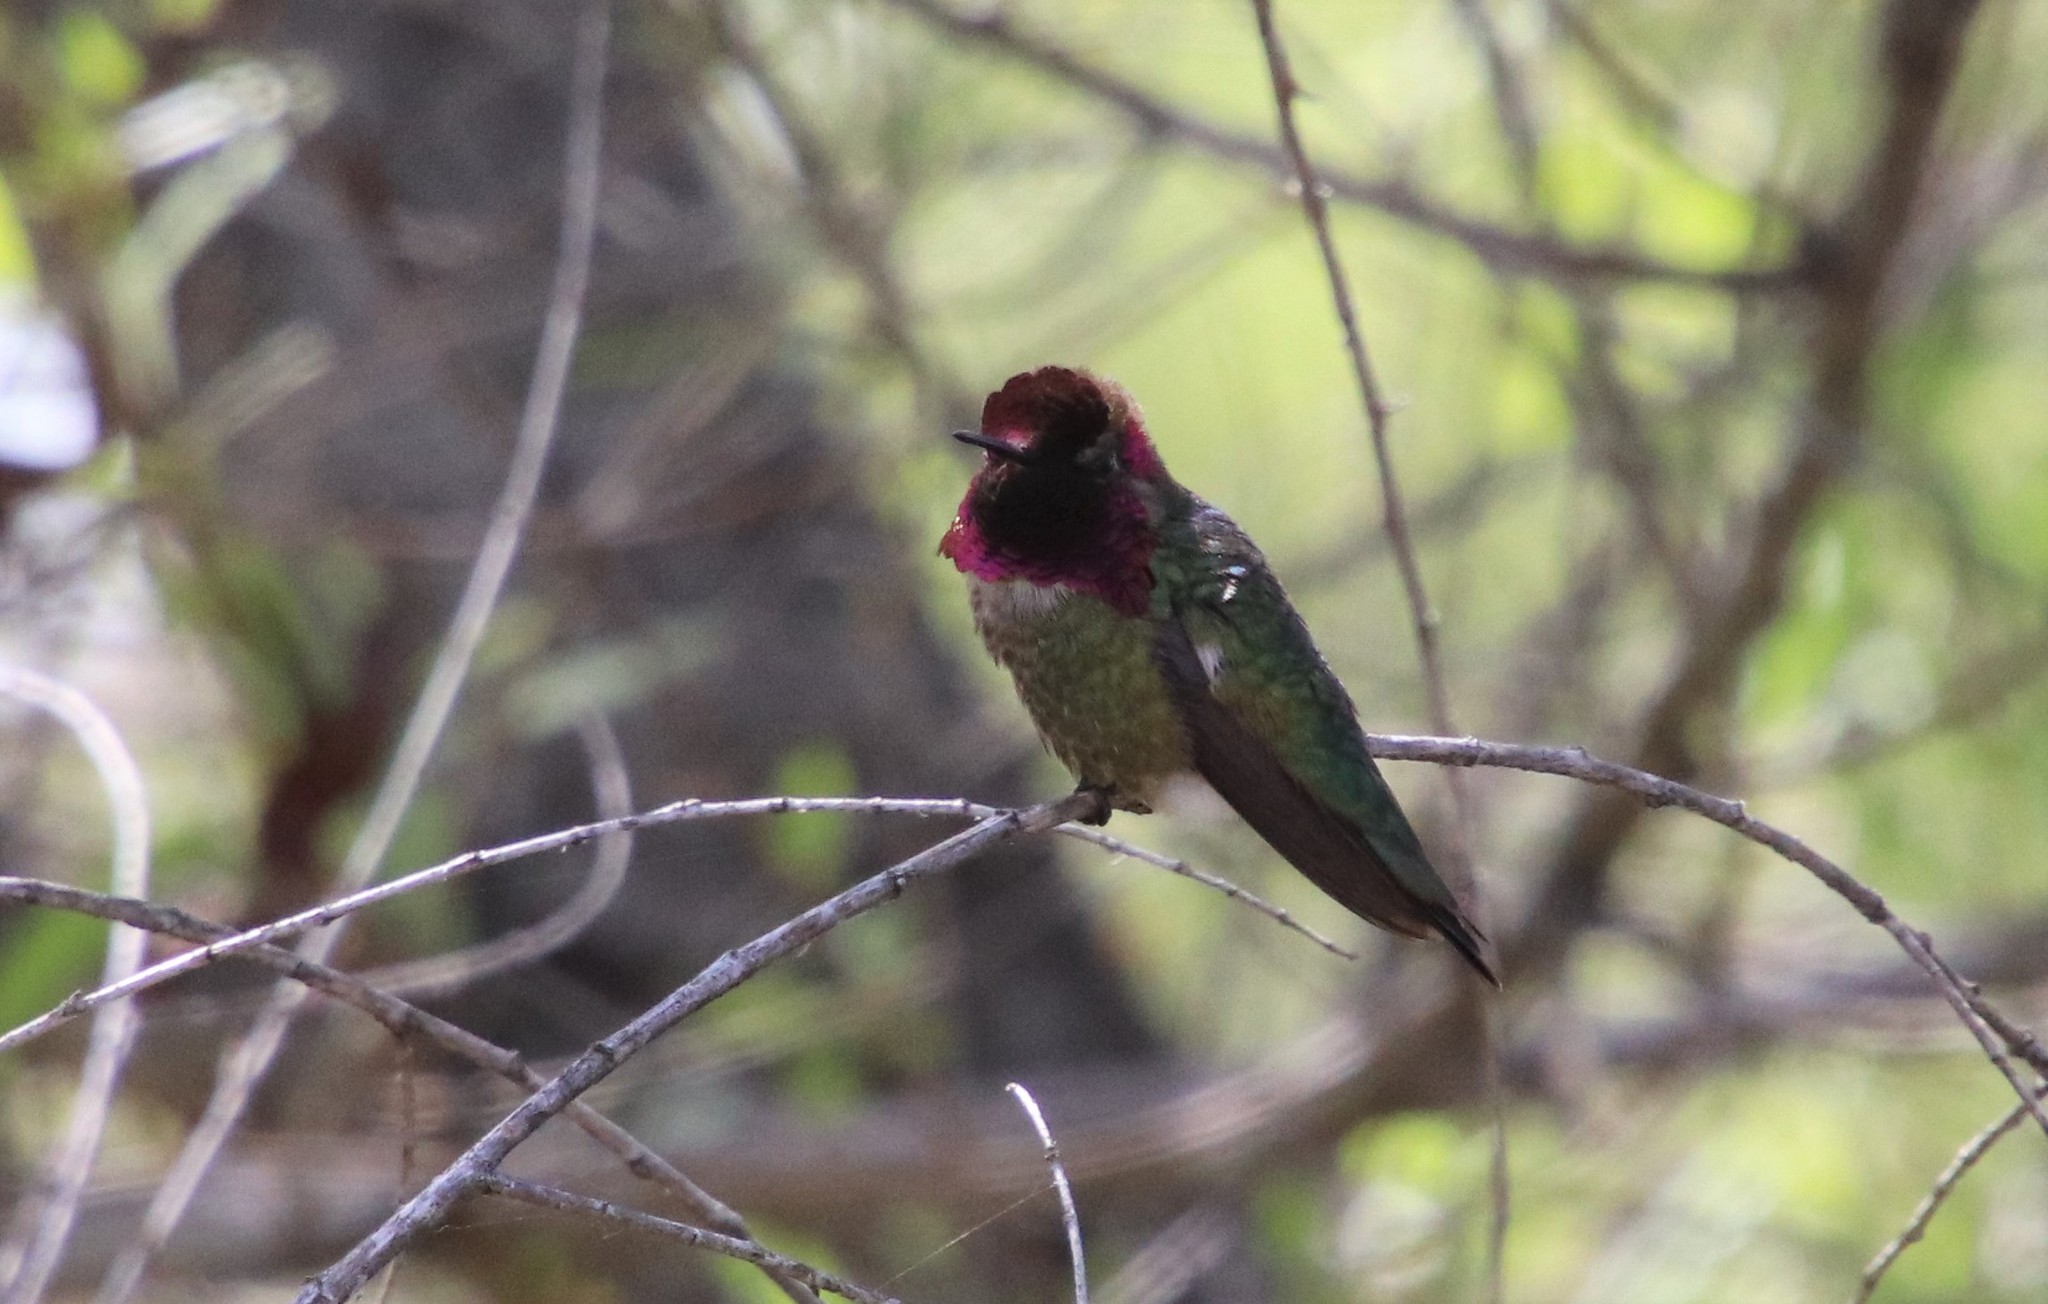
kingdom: Animalia
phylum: Chordata
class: Aves
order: Apodiformes
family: Trochilidae
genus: Calypte
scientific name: Calypte anna
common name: Anna's hummingbird
